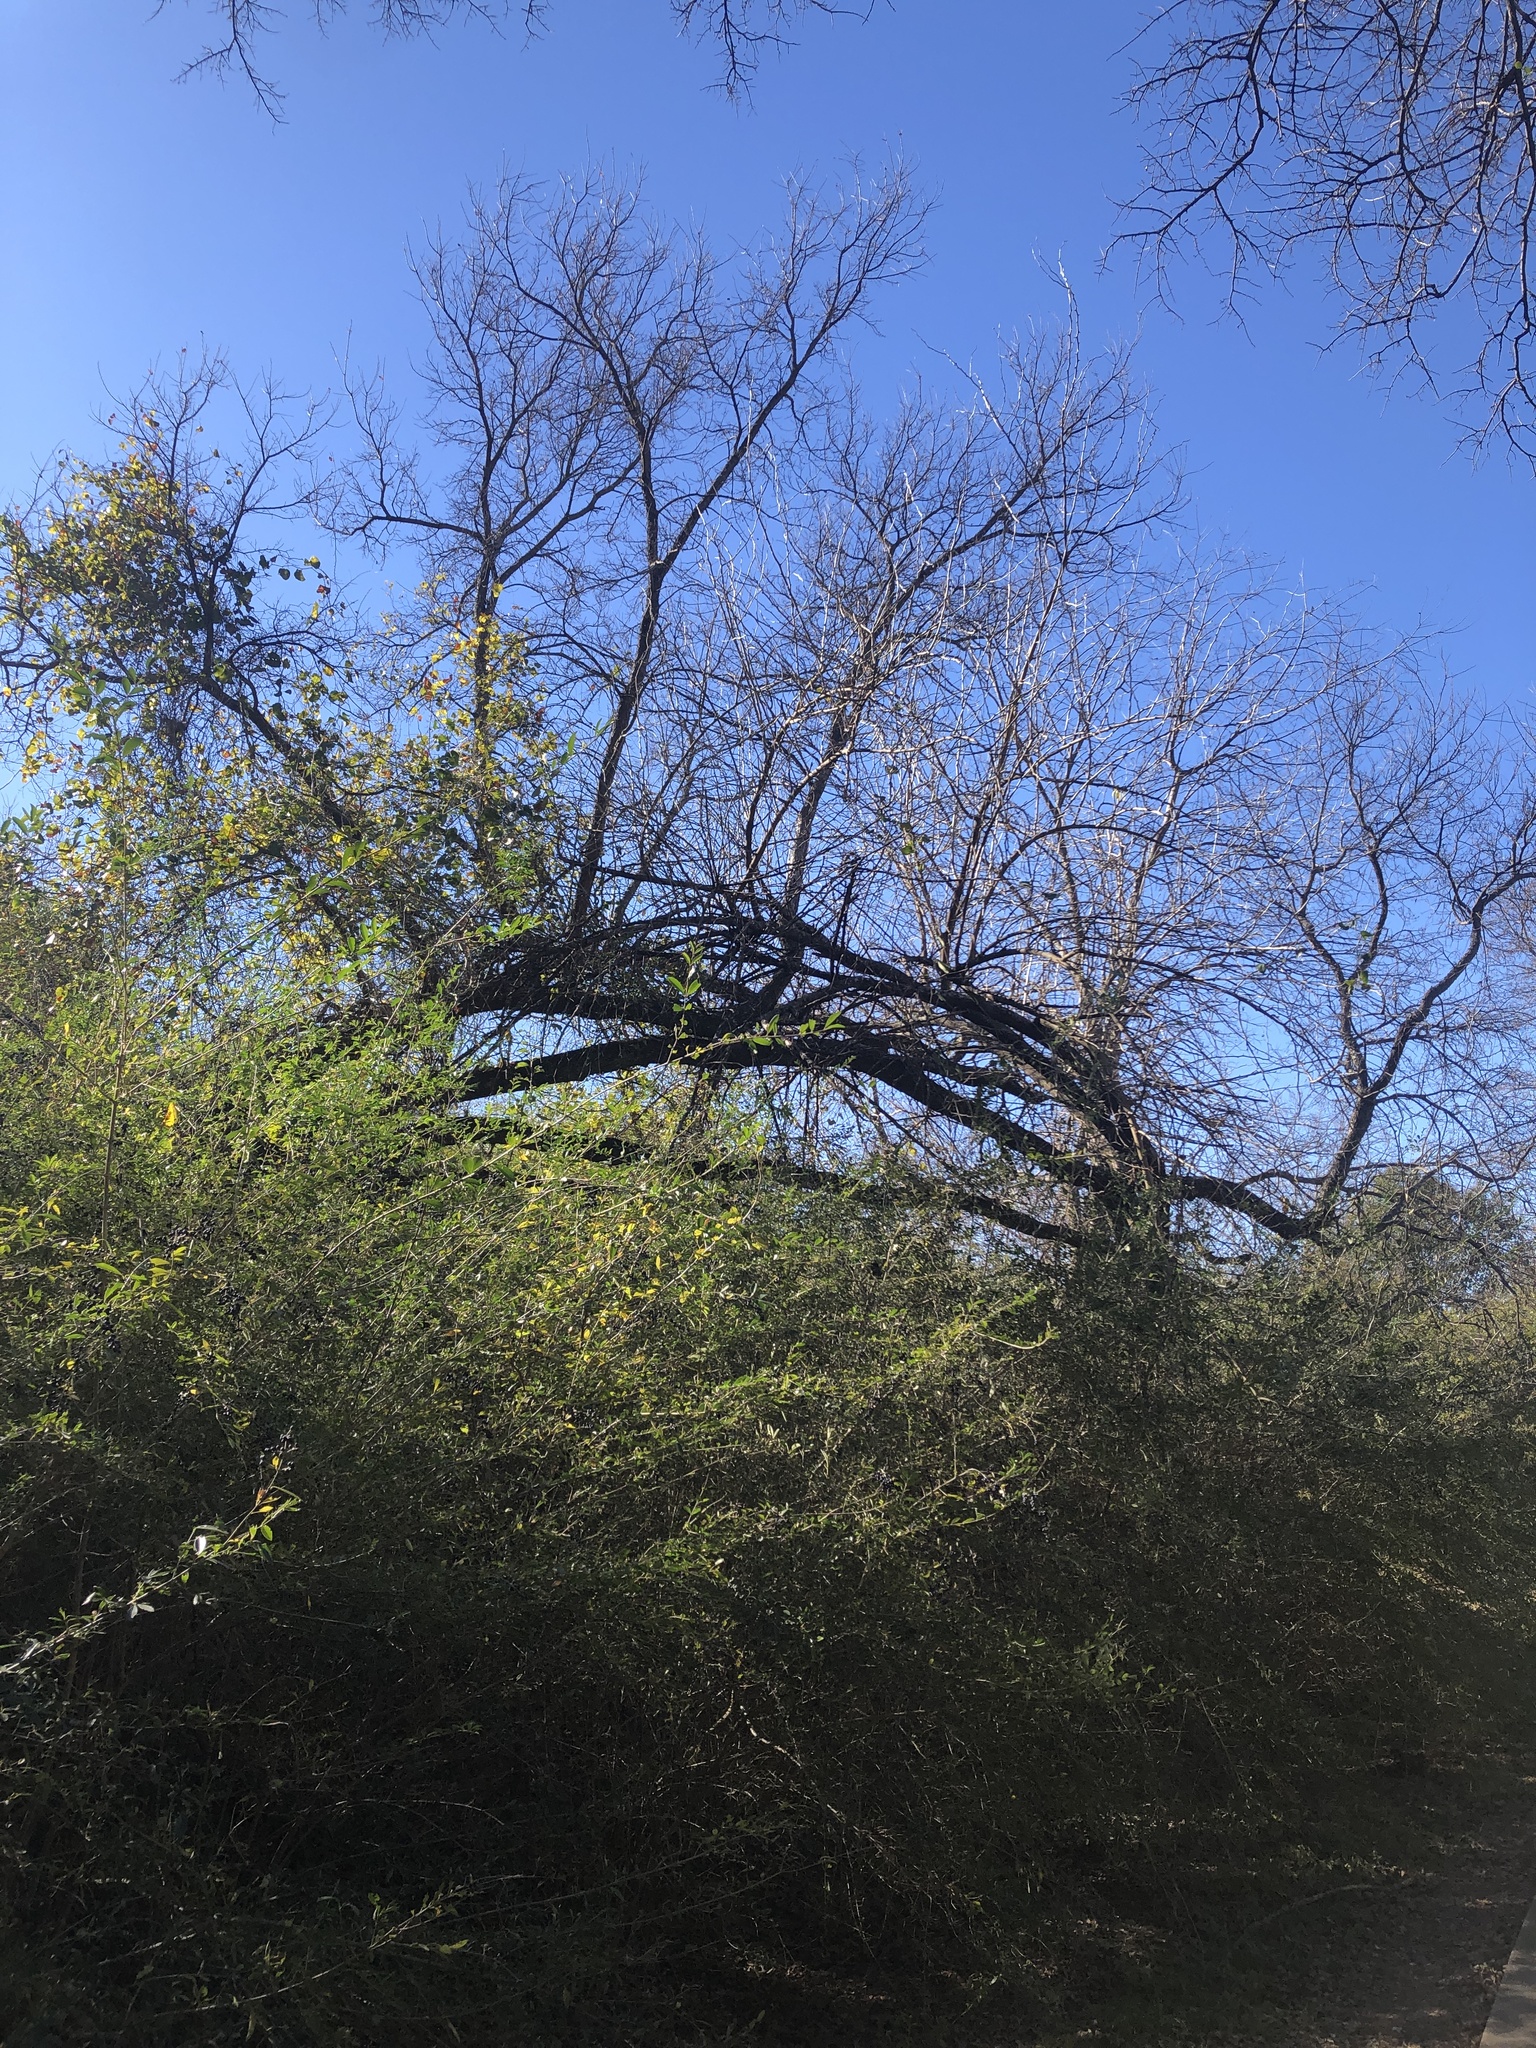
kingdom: Plantae
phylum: Tracheophyta
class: Magnoliopsida
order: Rosales
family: Moraceae
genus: Maclura
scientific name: Maclura pomifera
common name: Osage-orange
